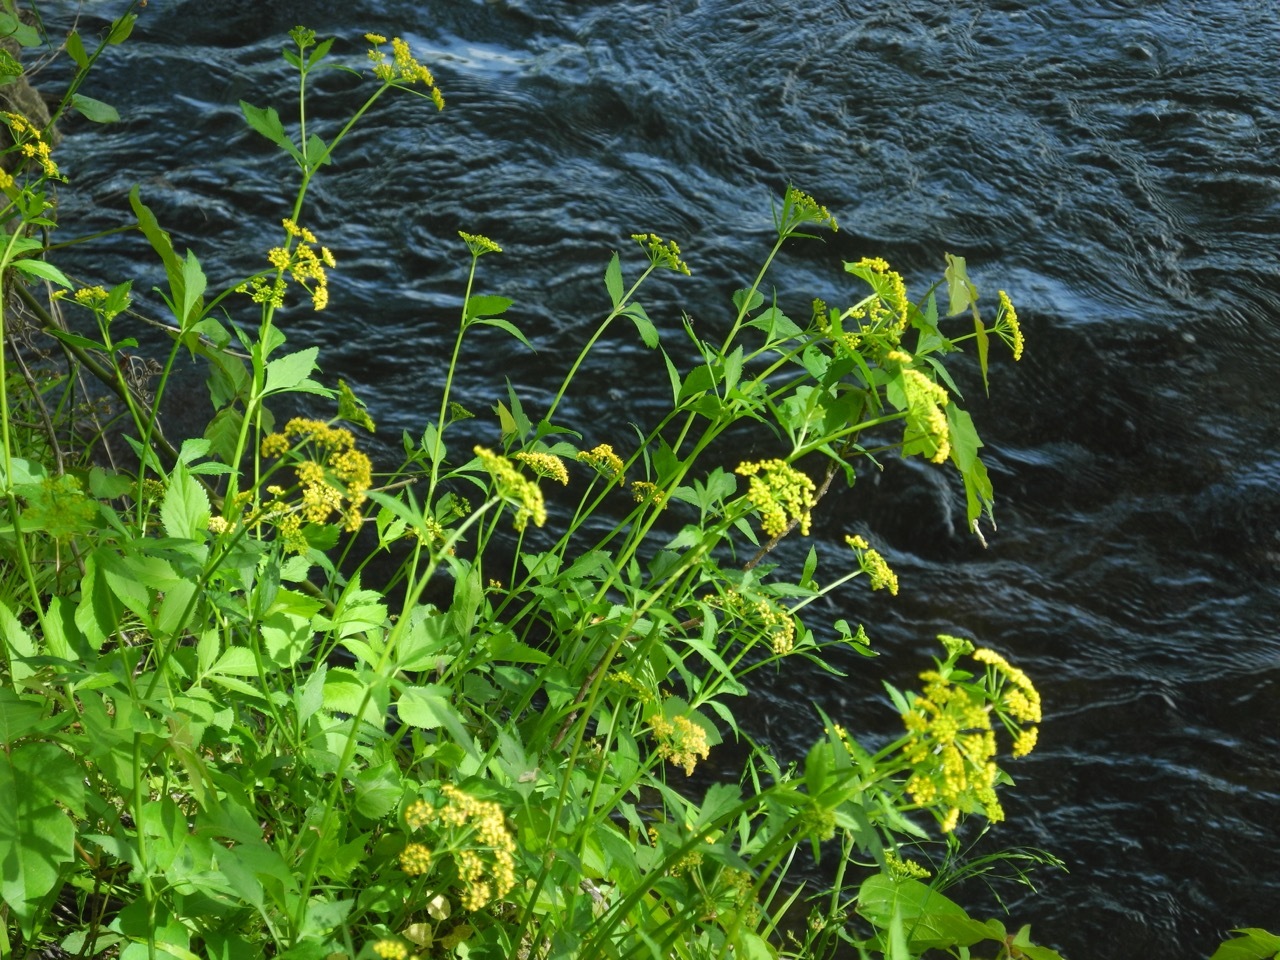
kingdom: Plantae
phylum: Tracheophyta
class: Magnoliopsida
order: Apiales
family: Apiaceae
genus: Zizia
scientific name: Zizia aurea
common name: Golden alexanders
